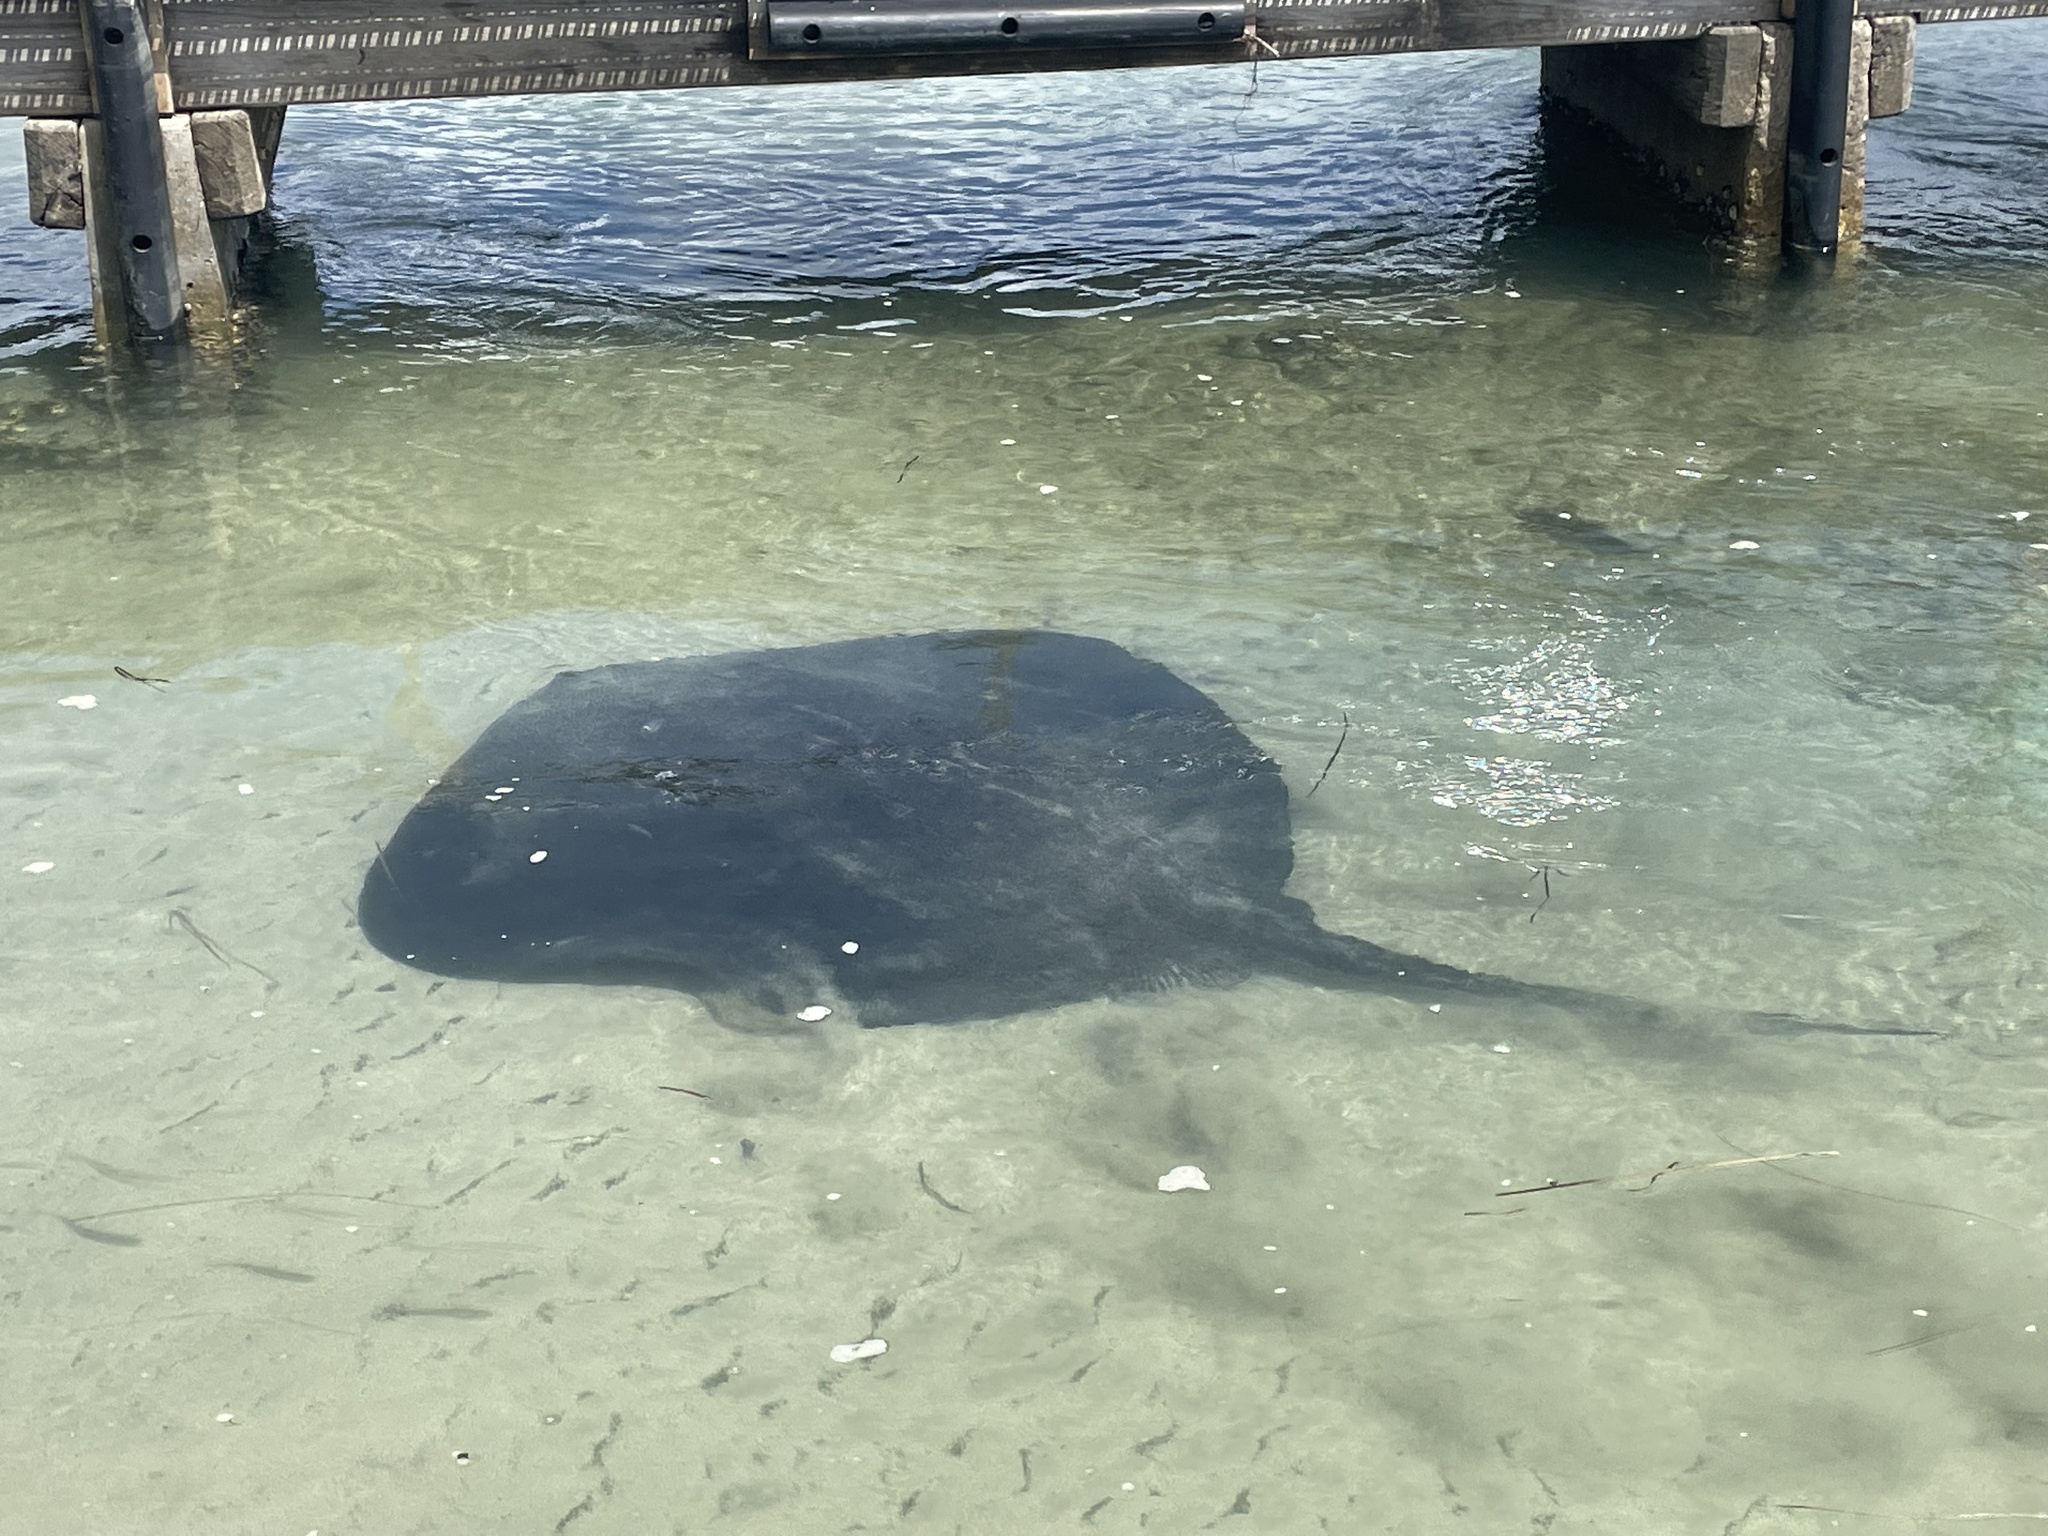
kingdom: Animalia
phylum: Chordata
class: Elasmobranchii
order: Myliobatiformes
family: Dasyatidae
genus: Bathytoshia
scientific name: Bathytoshia brevicaudata
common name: Short-tail stingray
